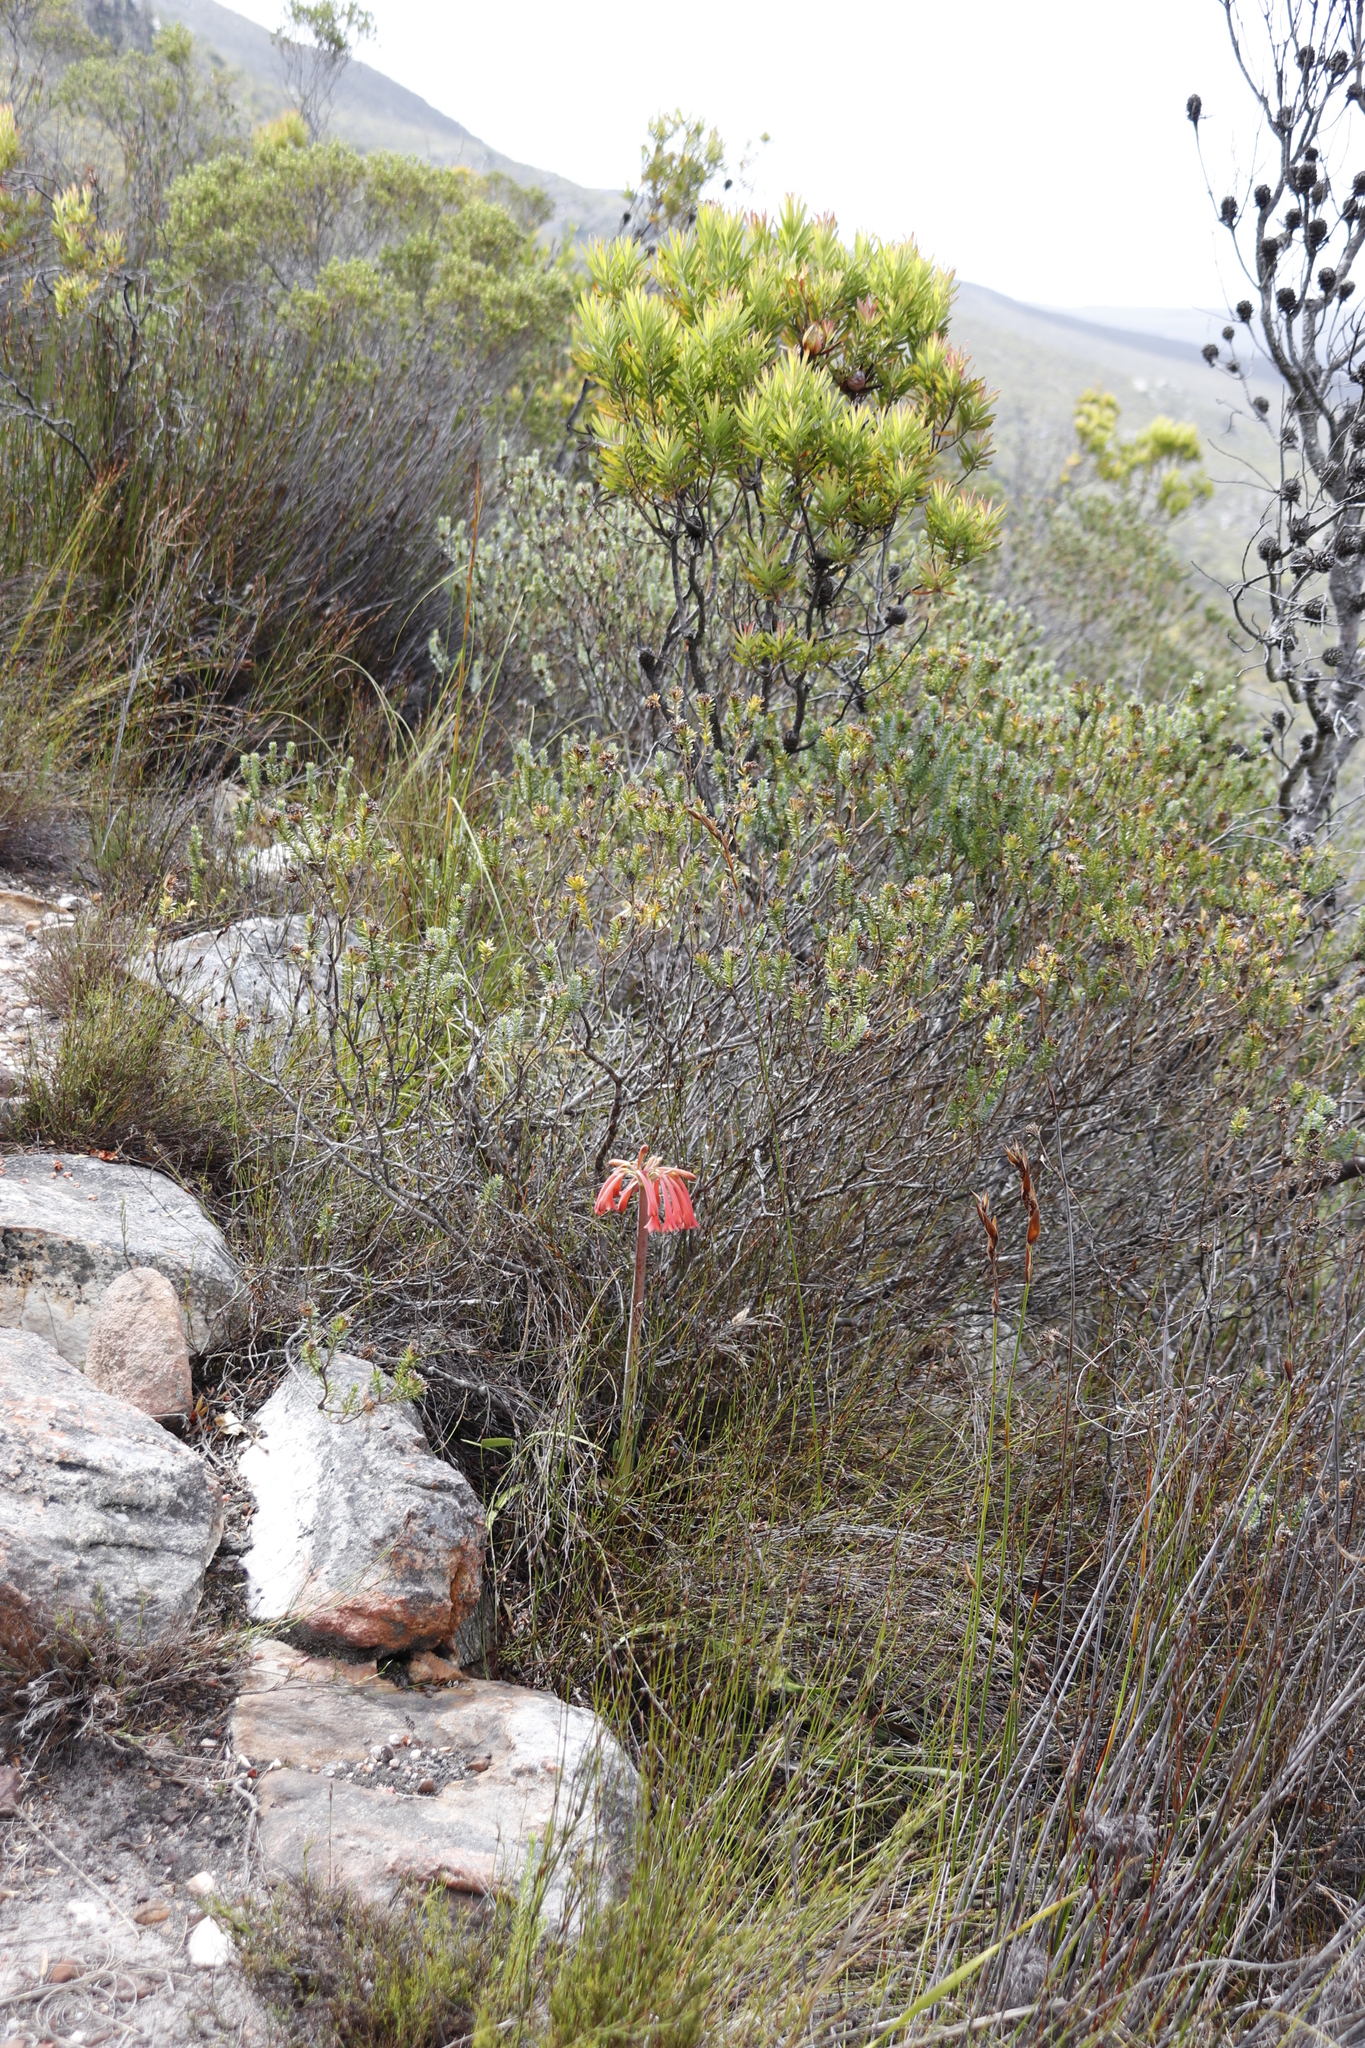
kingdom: Plantae
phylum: Tracheophyta
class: Liliopsida
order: Asparagales
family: Amaryllidaceae
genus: Cyrtanthus
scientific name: Cyrtanthus carneus
